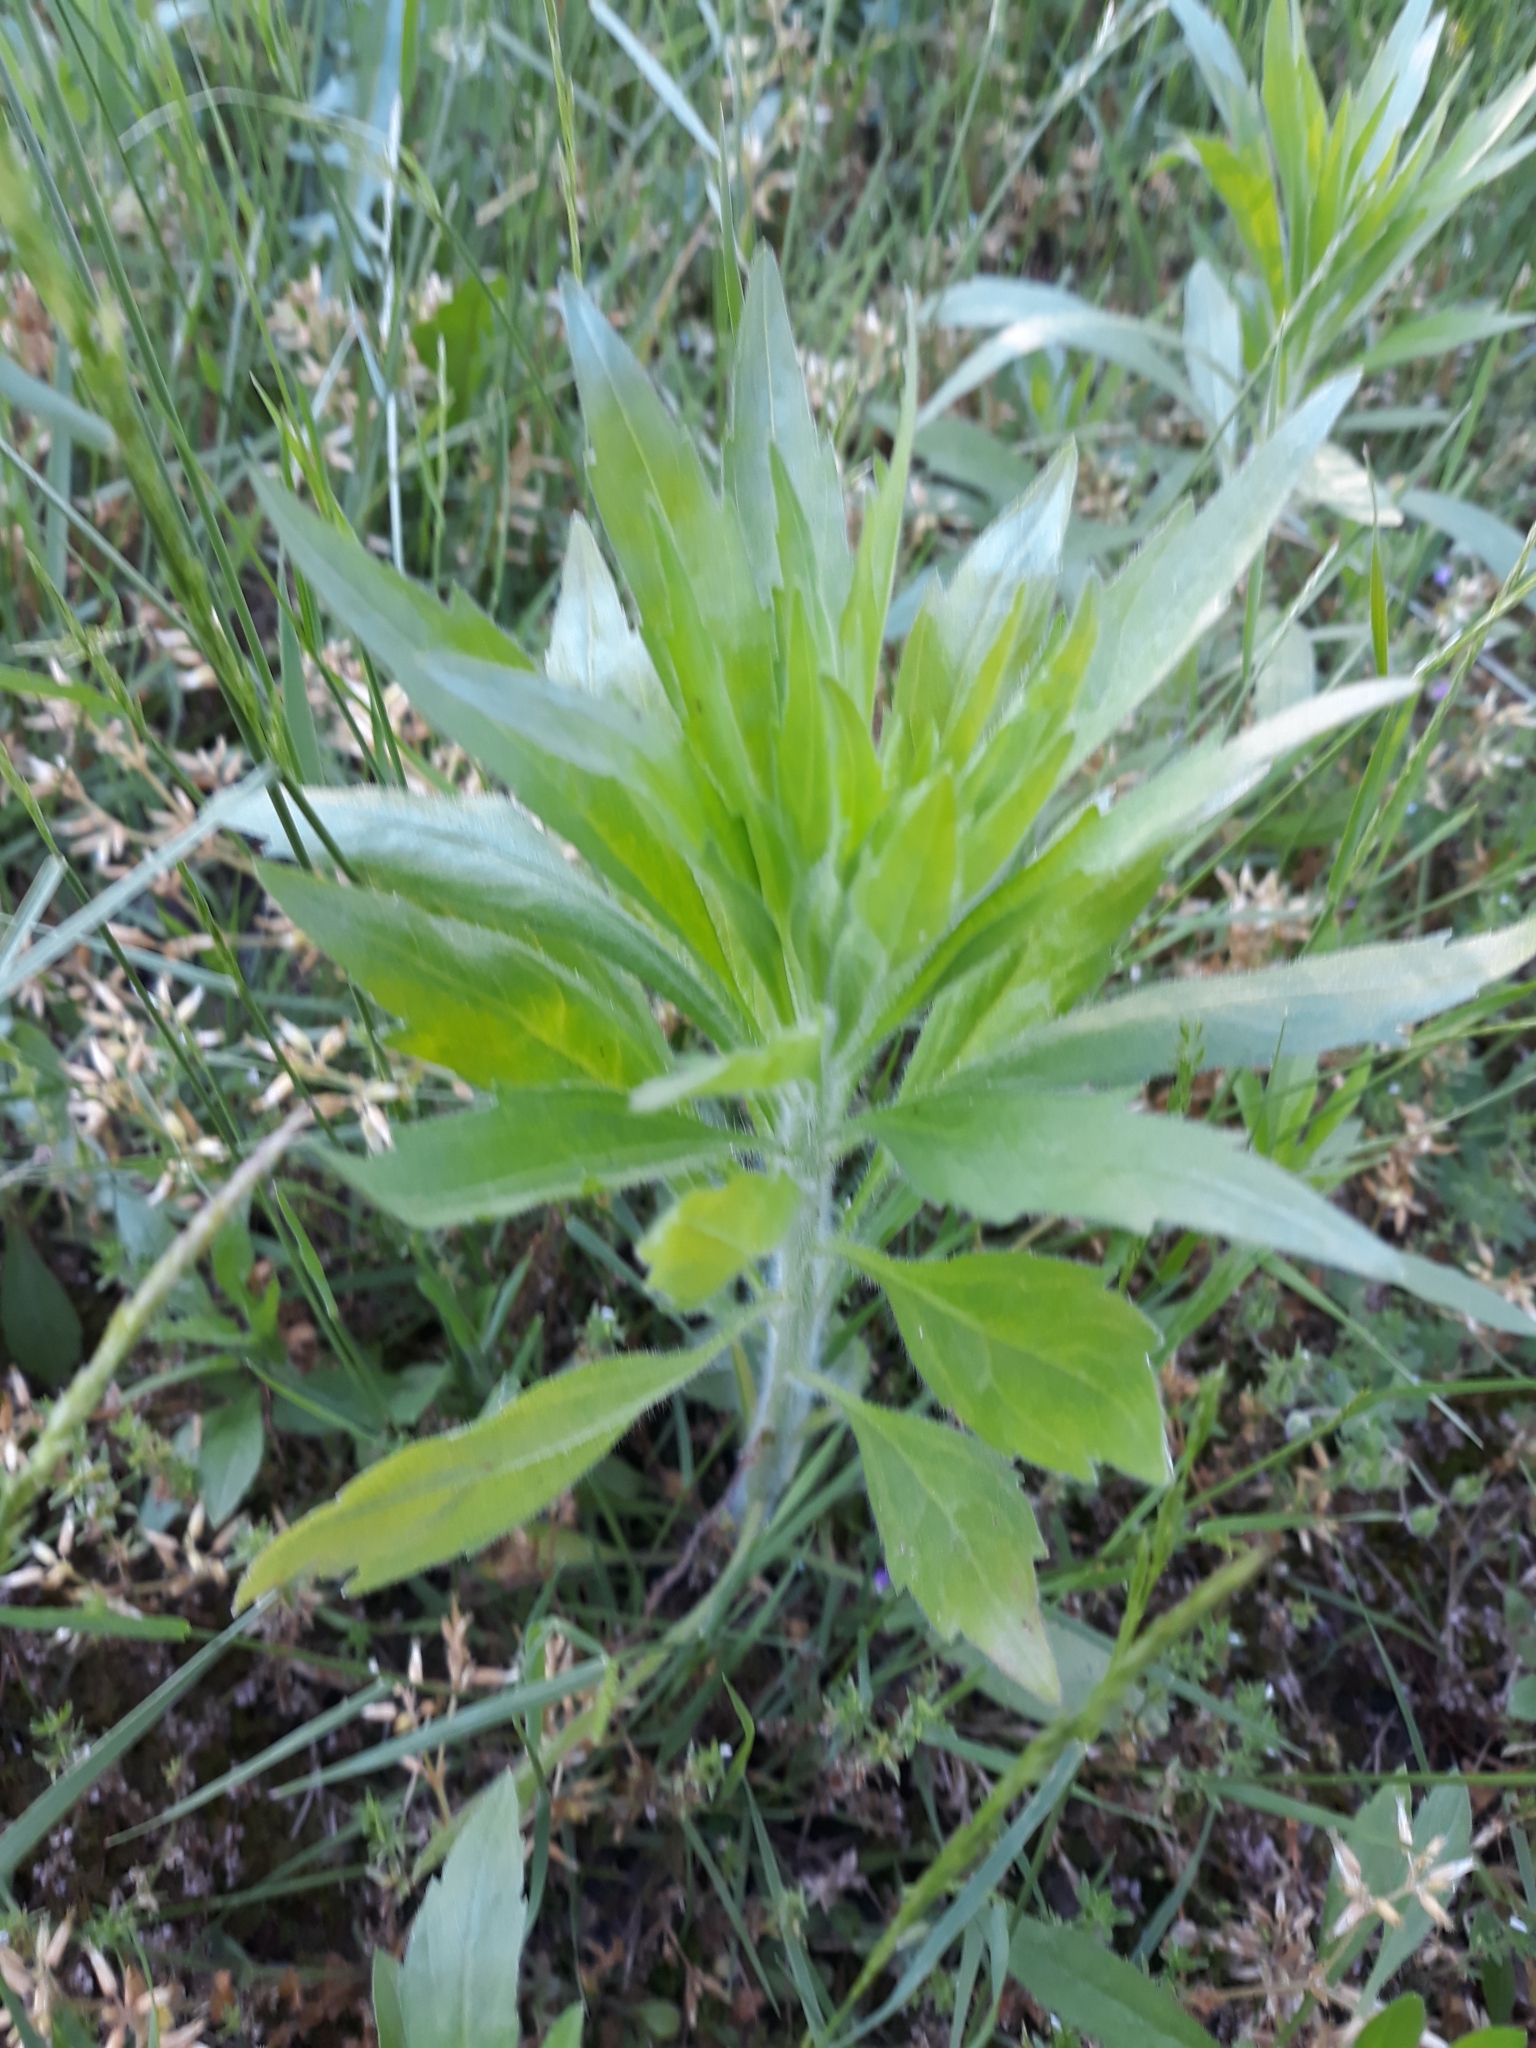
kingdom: Plantae
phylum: Tracheophyta
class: Magnoliopsida
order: Asterales
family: Asteraceae
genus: Erigeron
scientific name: Erigeron canadensis
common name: Canadian fleabane
